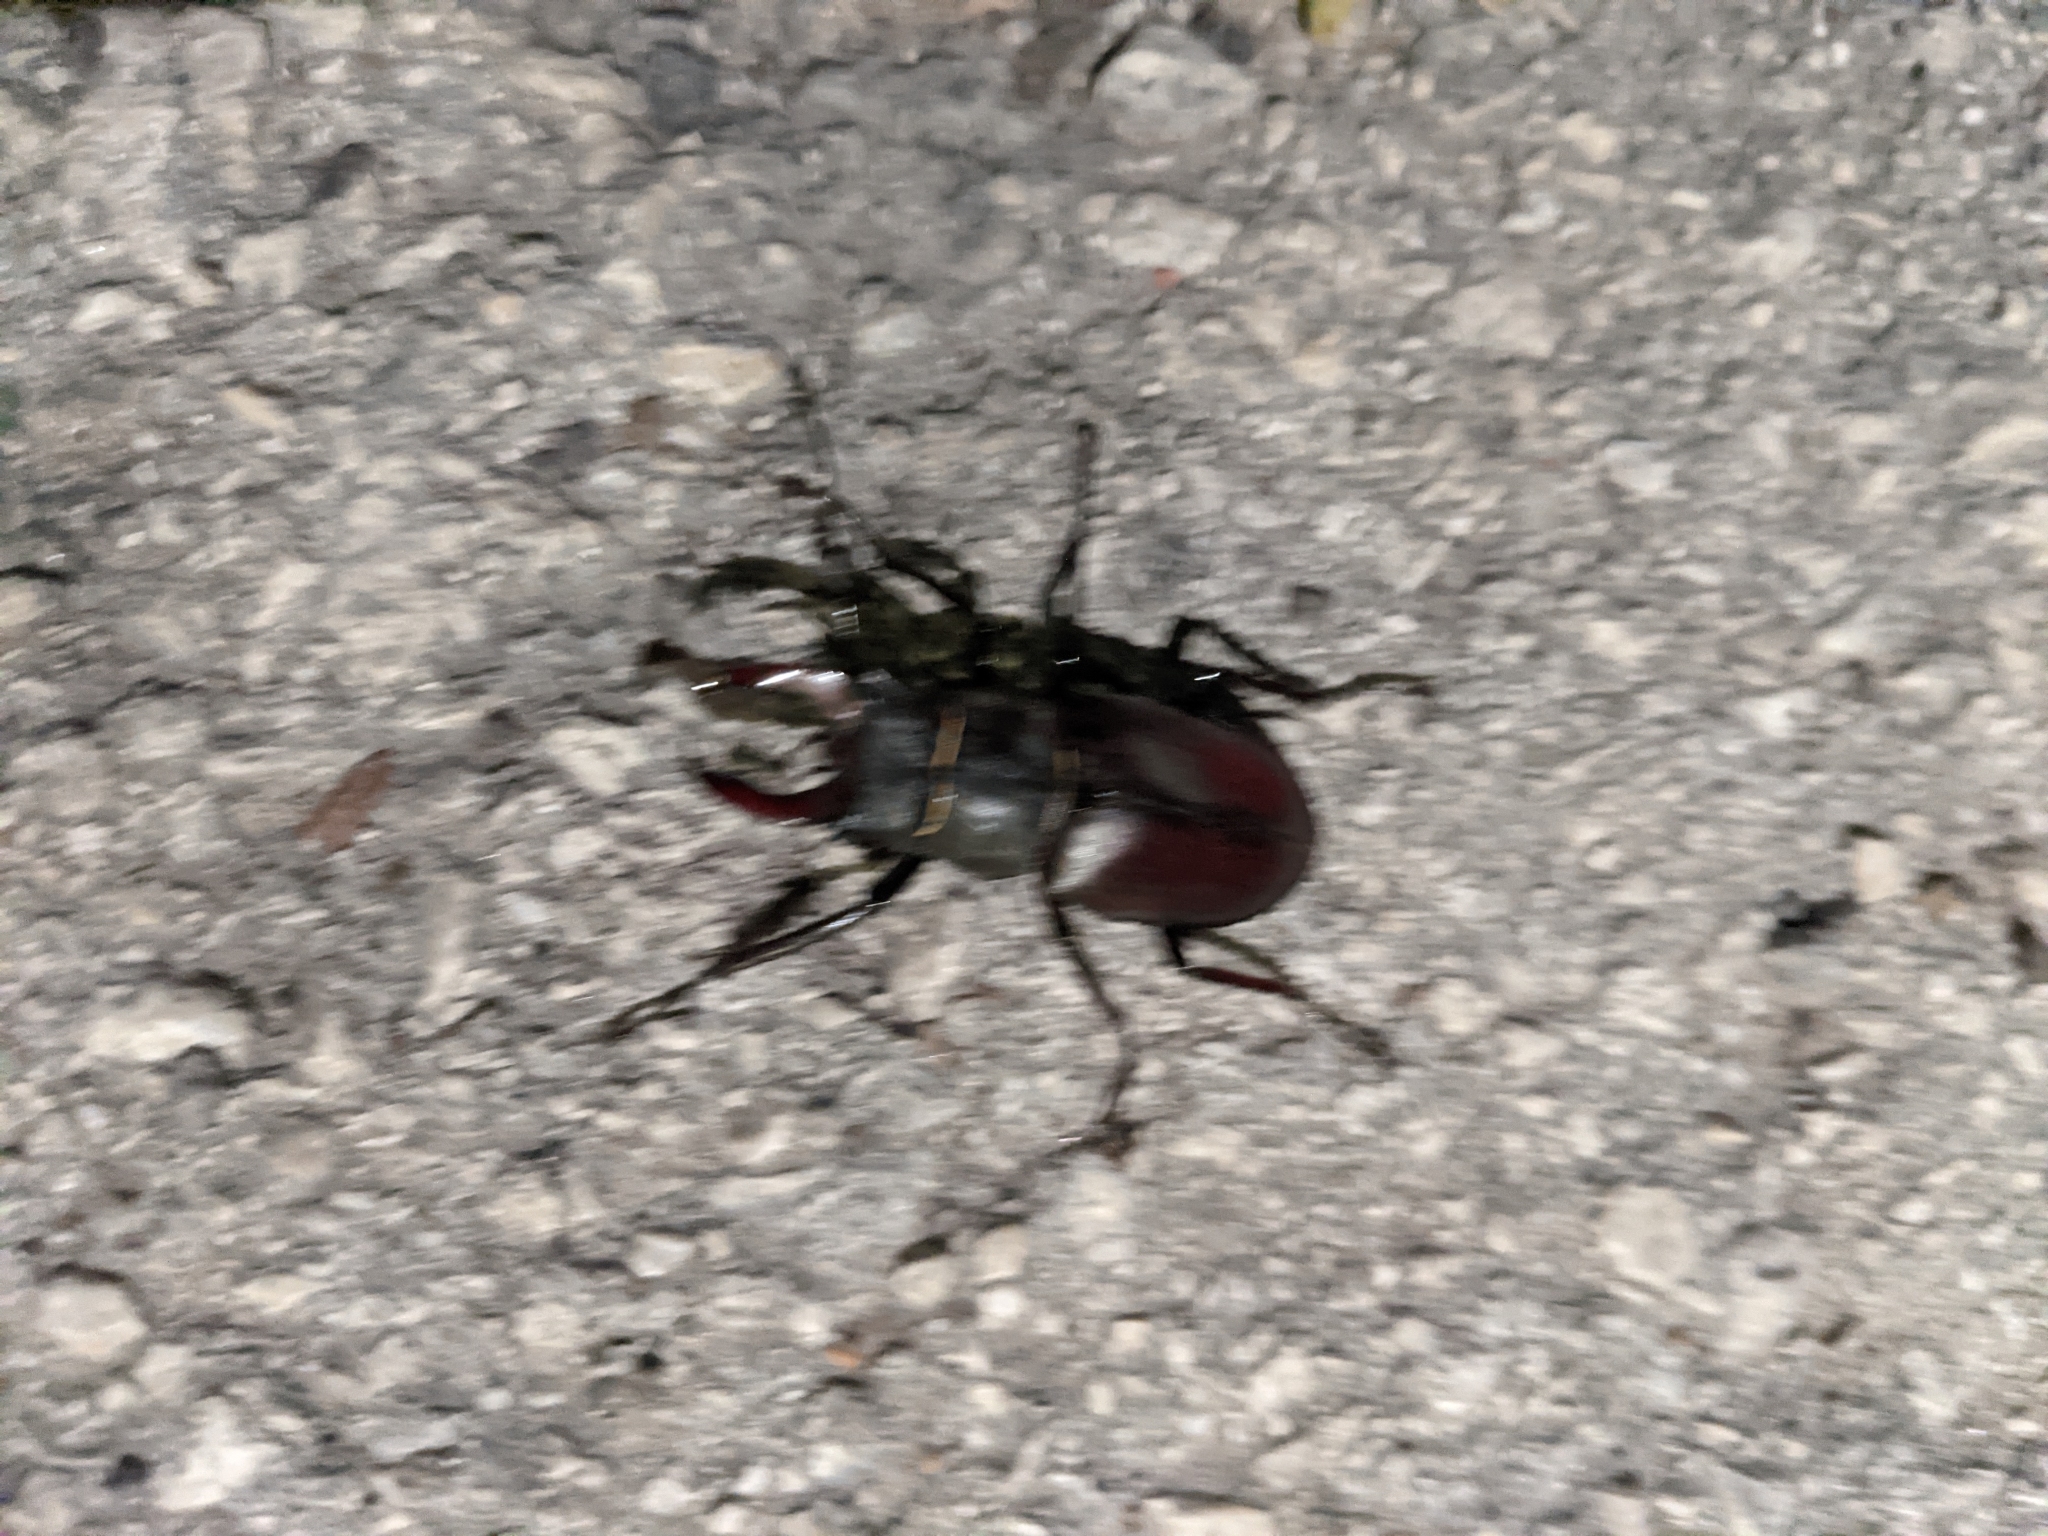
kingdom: Animalia
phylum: Arthropoda
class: Insecta
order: Coleoptera
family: Lucanidae
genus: Lucanus
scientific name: Lucanus cervus
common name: Stag beetle
